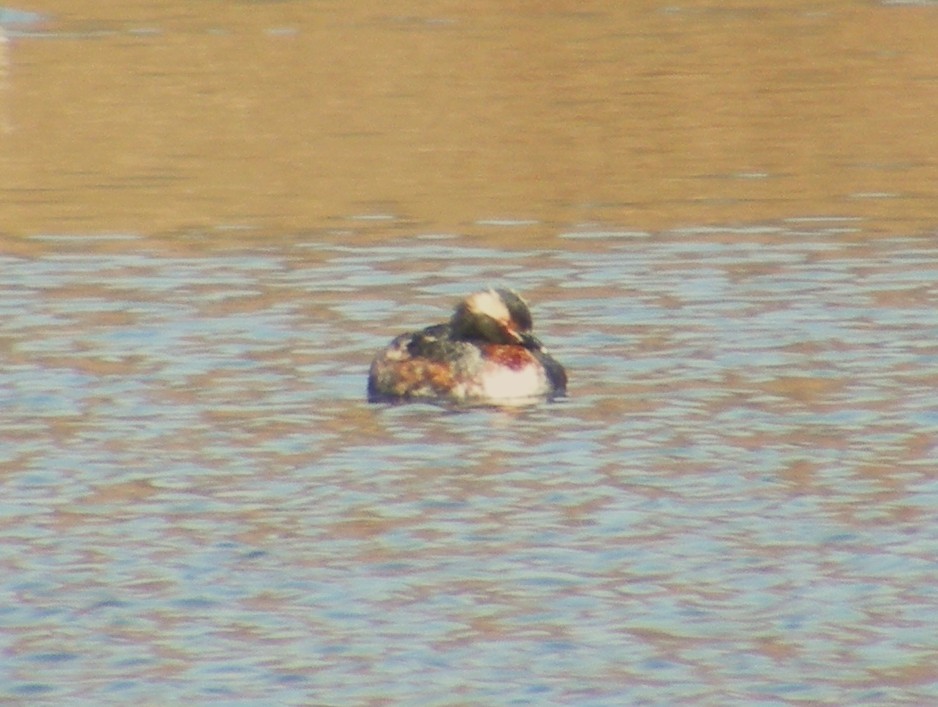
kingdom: Animalia
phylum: Chordata
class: Aves
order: Podicipediformes
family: Podicipedidae
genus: Podiceps
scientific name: Podiceps auritus
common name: Horned grebe
